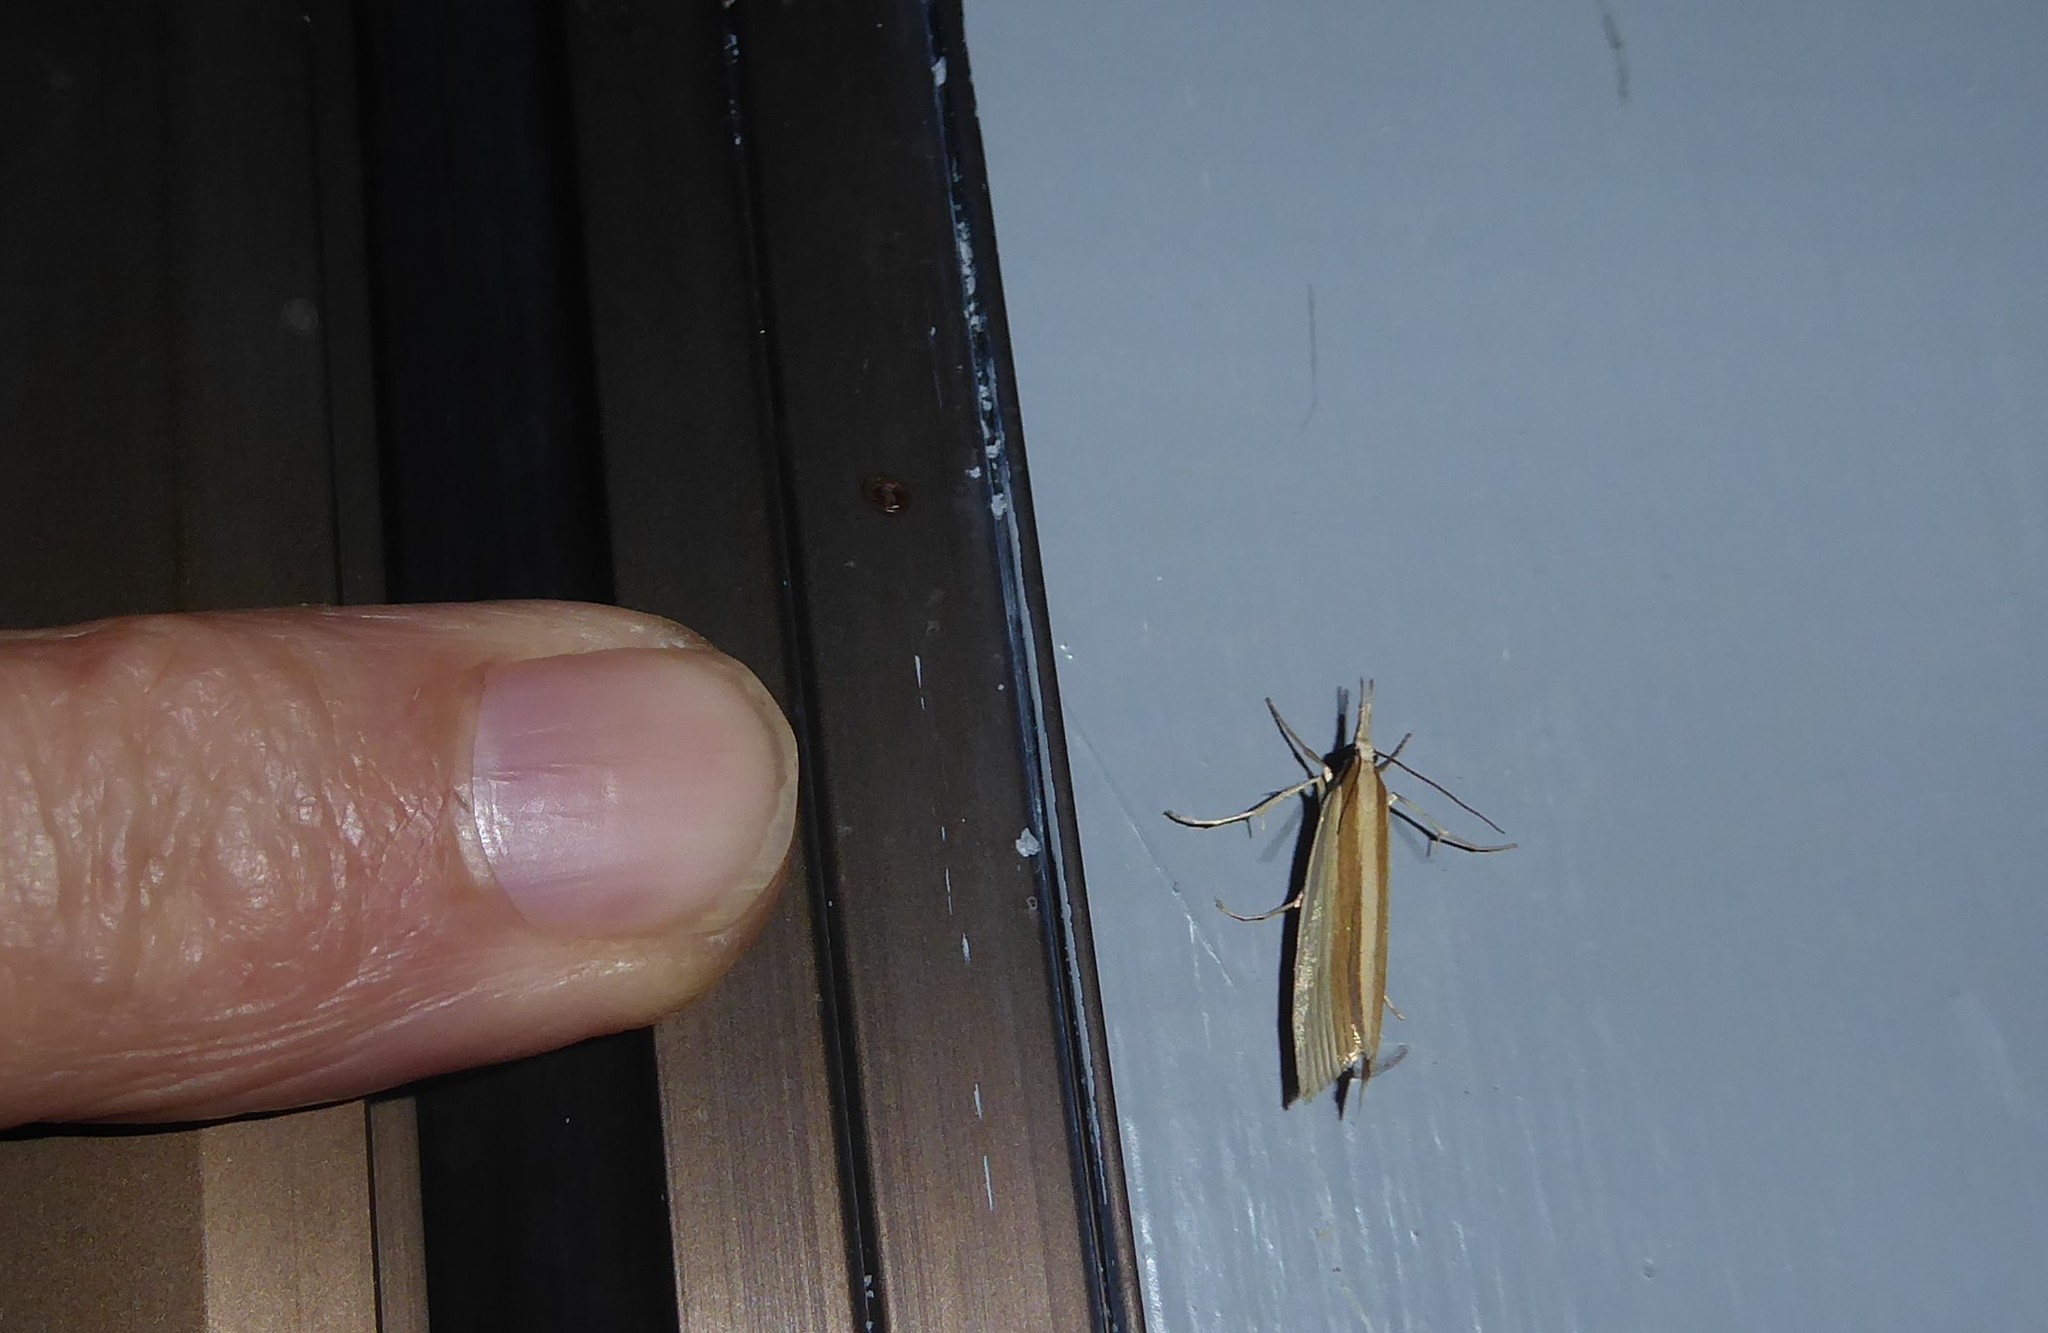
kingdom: Animalia
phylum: Arthropoda
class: Insecta
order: Lepidoptera
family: Crambidae
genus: Orocrambus
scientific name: Orocrambus angustipennis
